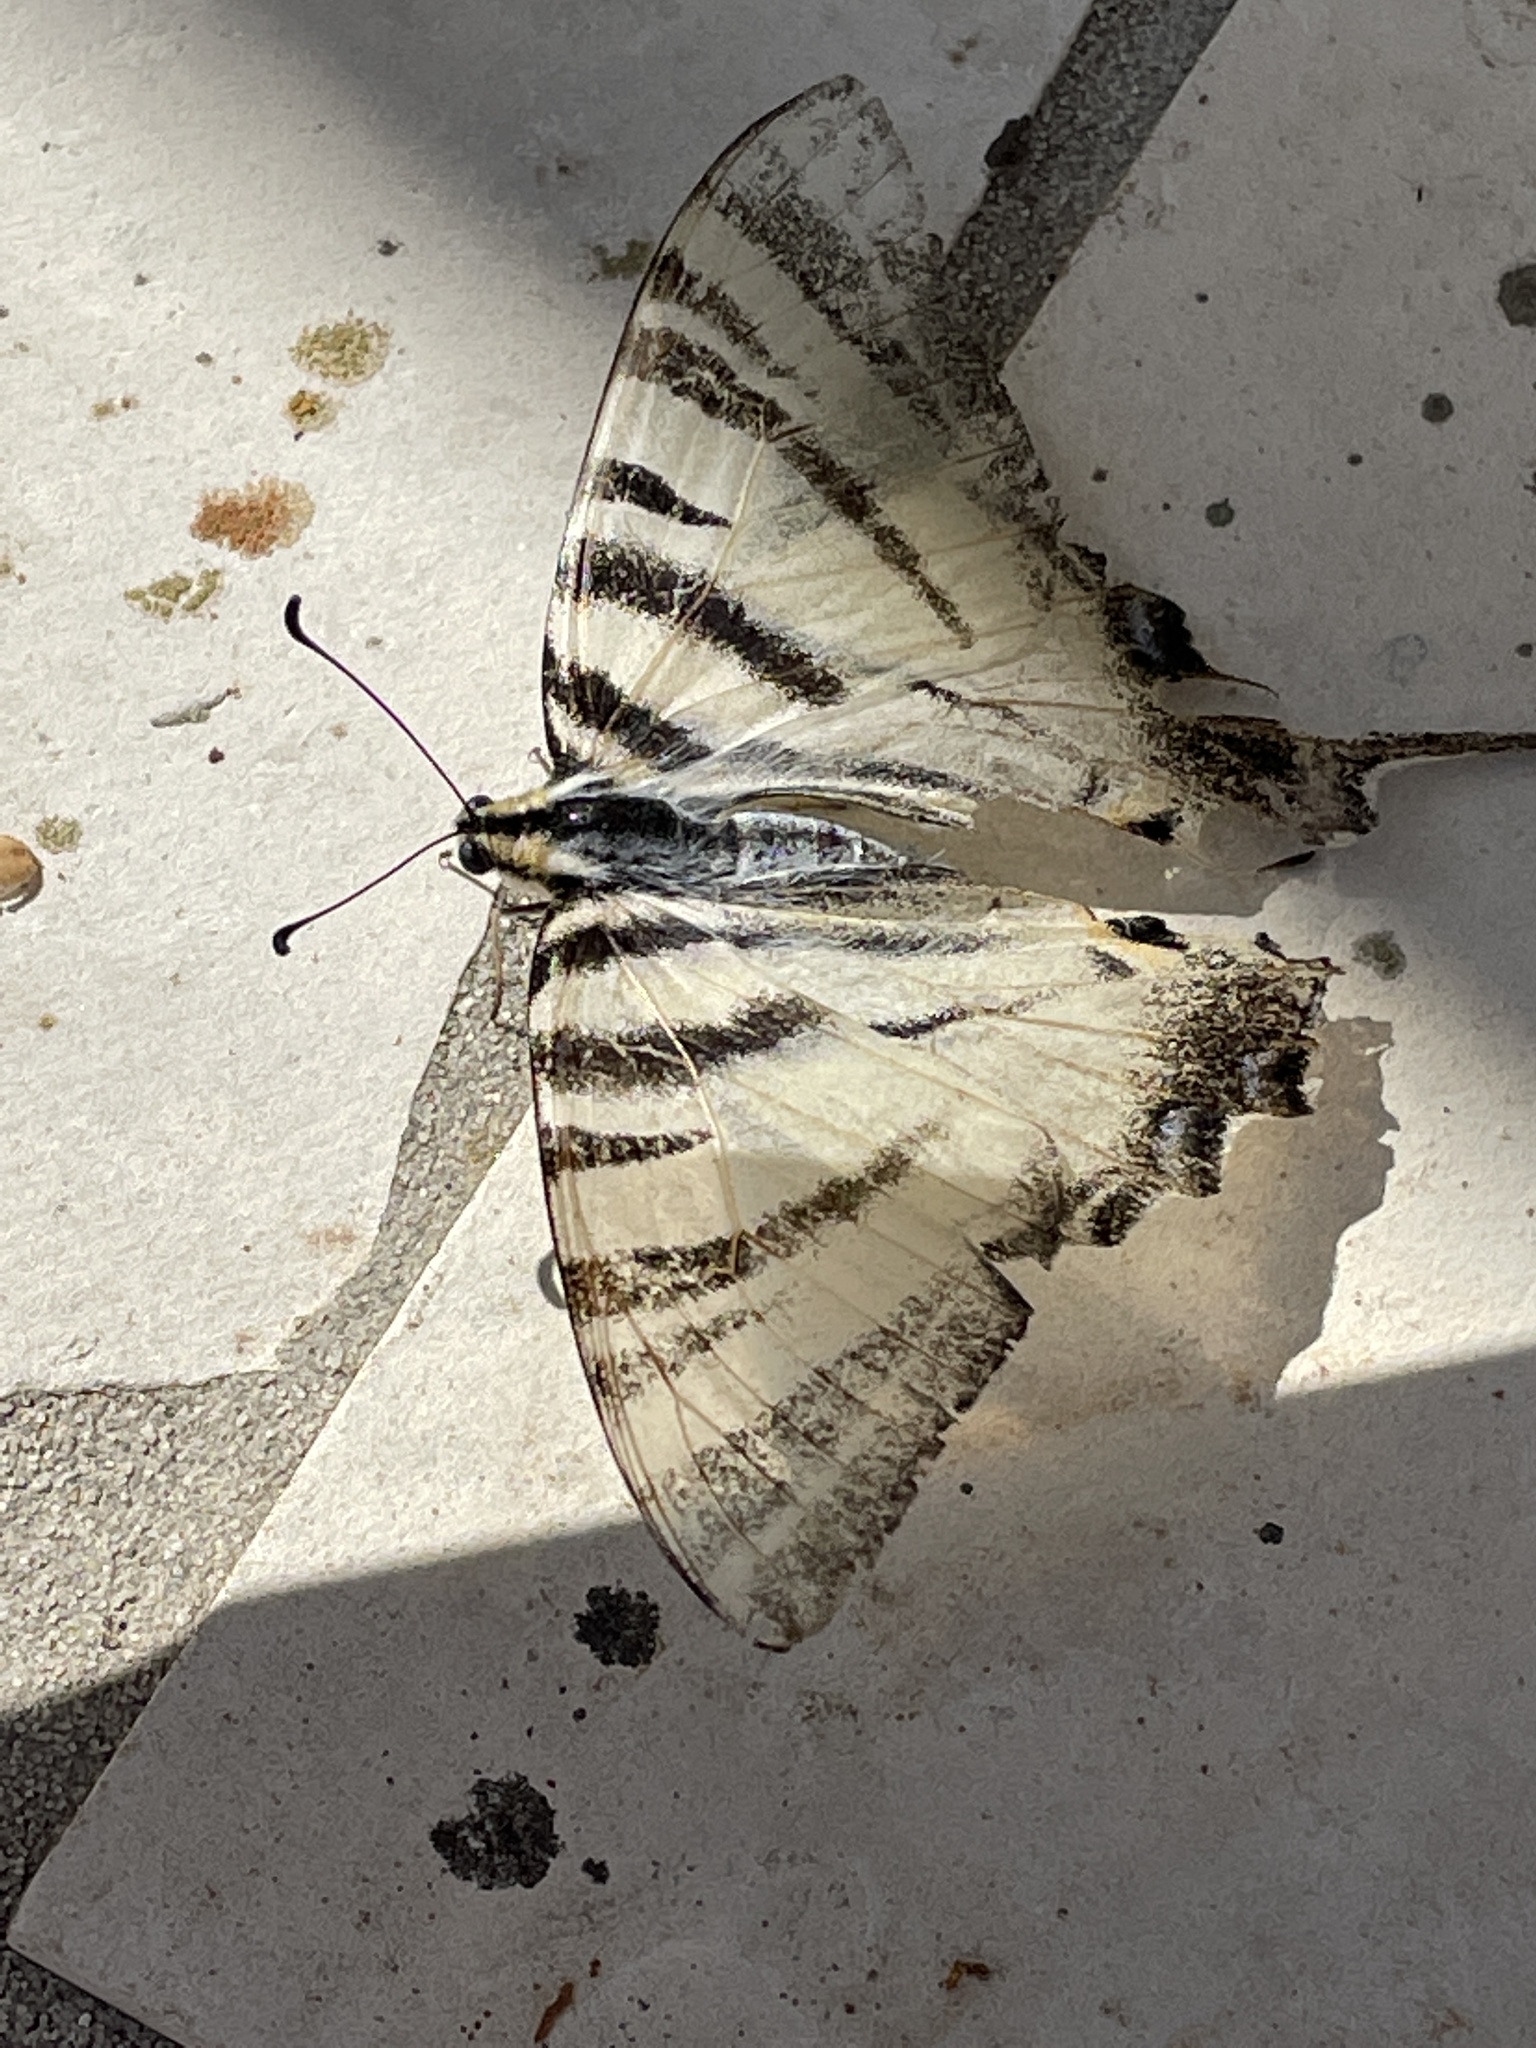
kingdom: Animalia
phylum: Arthropoda
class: Insecta
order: Lepidoptera
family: Papilionidae
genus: Iphiclides
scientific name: Iphiclides podalirius
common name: Scarce swallowtail
